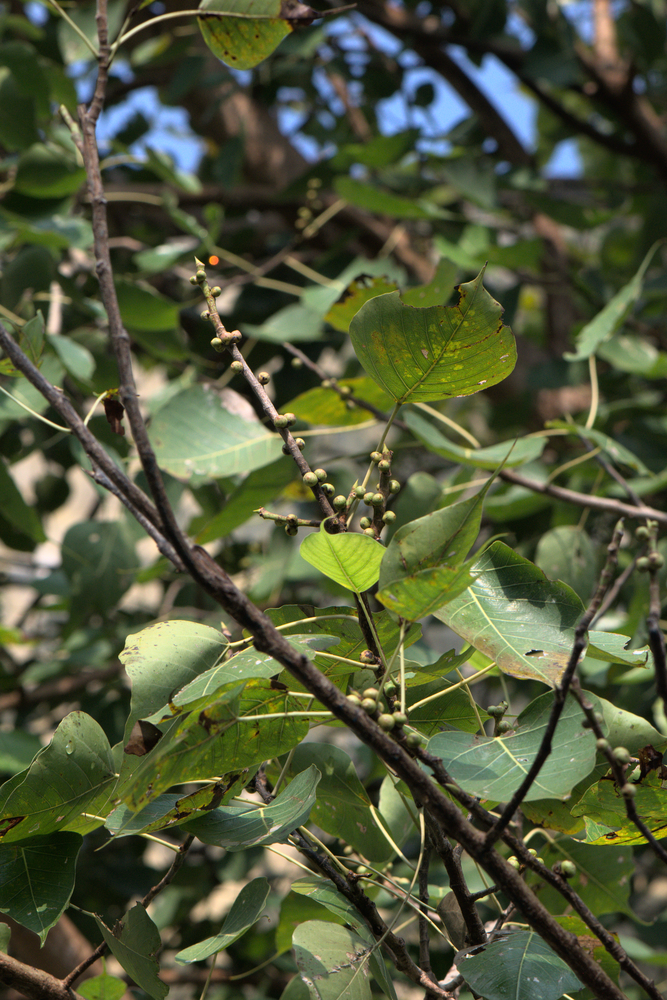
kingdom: Plantae
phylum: Tracheophyta
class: Magnoliopsida
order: Rosales
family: Moraceae
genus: Ficus
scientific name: Ficus religiosa
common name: Bodhi tree
